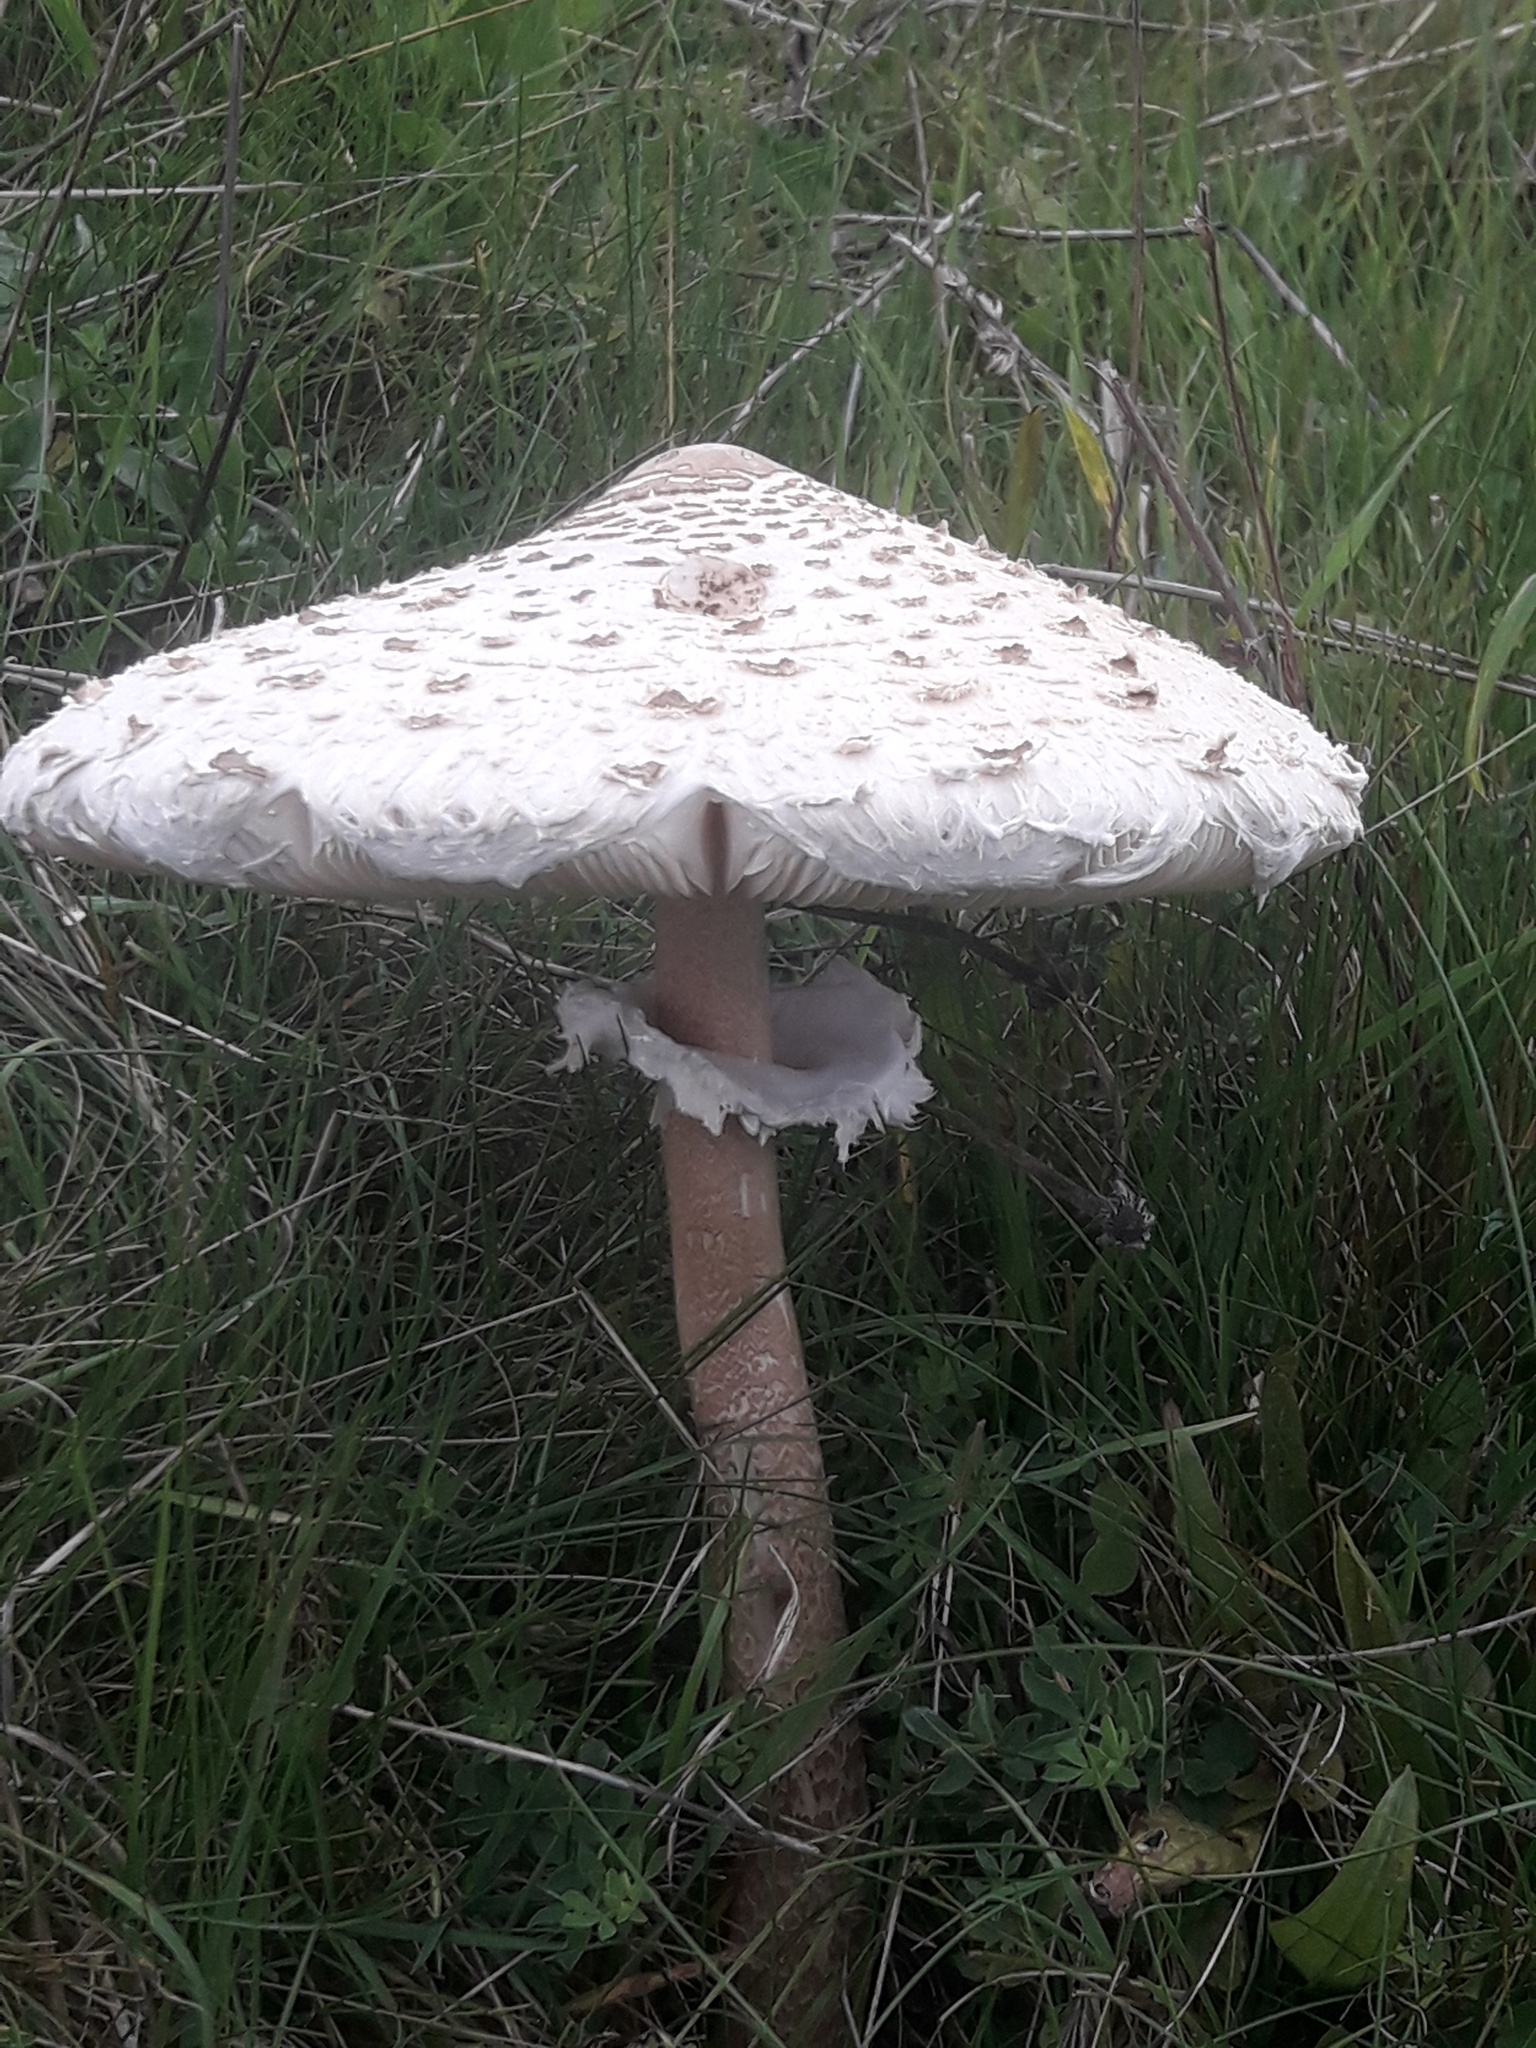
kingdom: Fungi
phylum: Basidiomycota
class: Agaricomycetes
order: Agaricales
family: Agaricaceae
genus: Macrolepiota
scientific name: Macrolepiota procera
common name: Parasol
